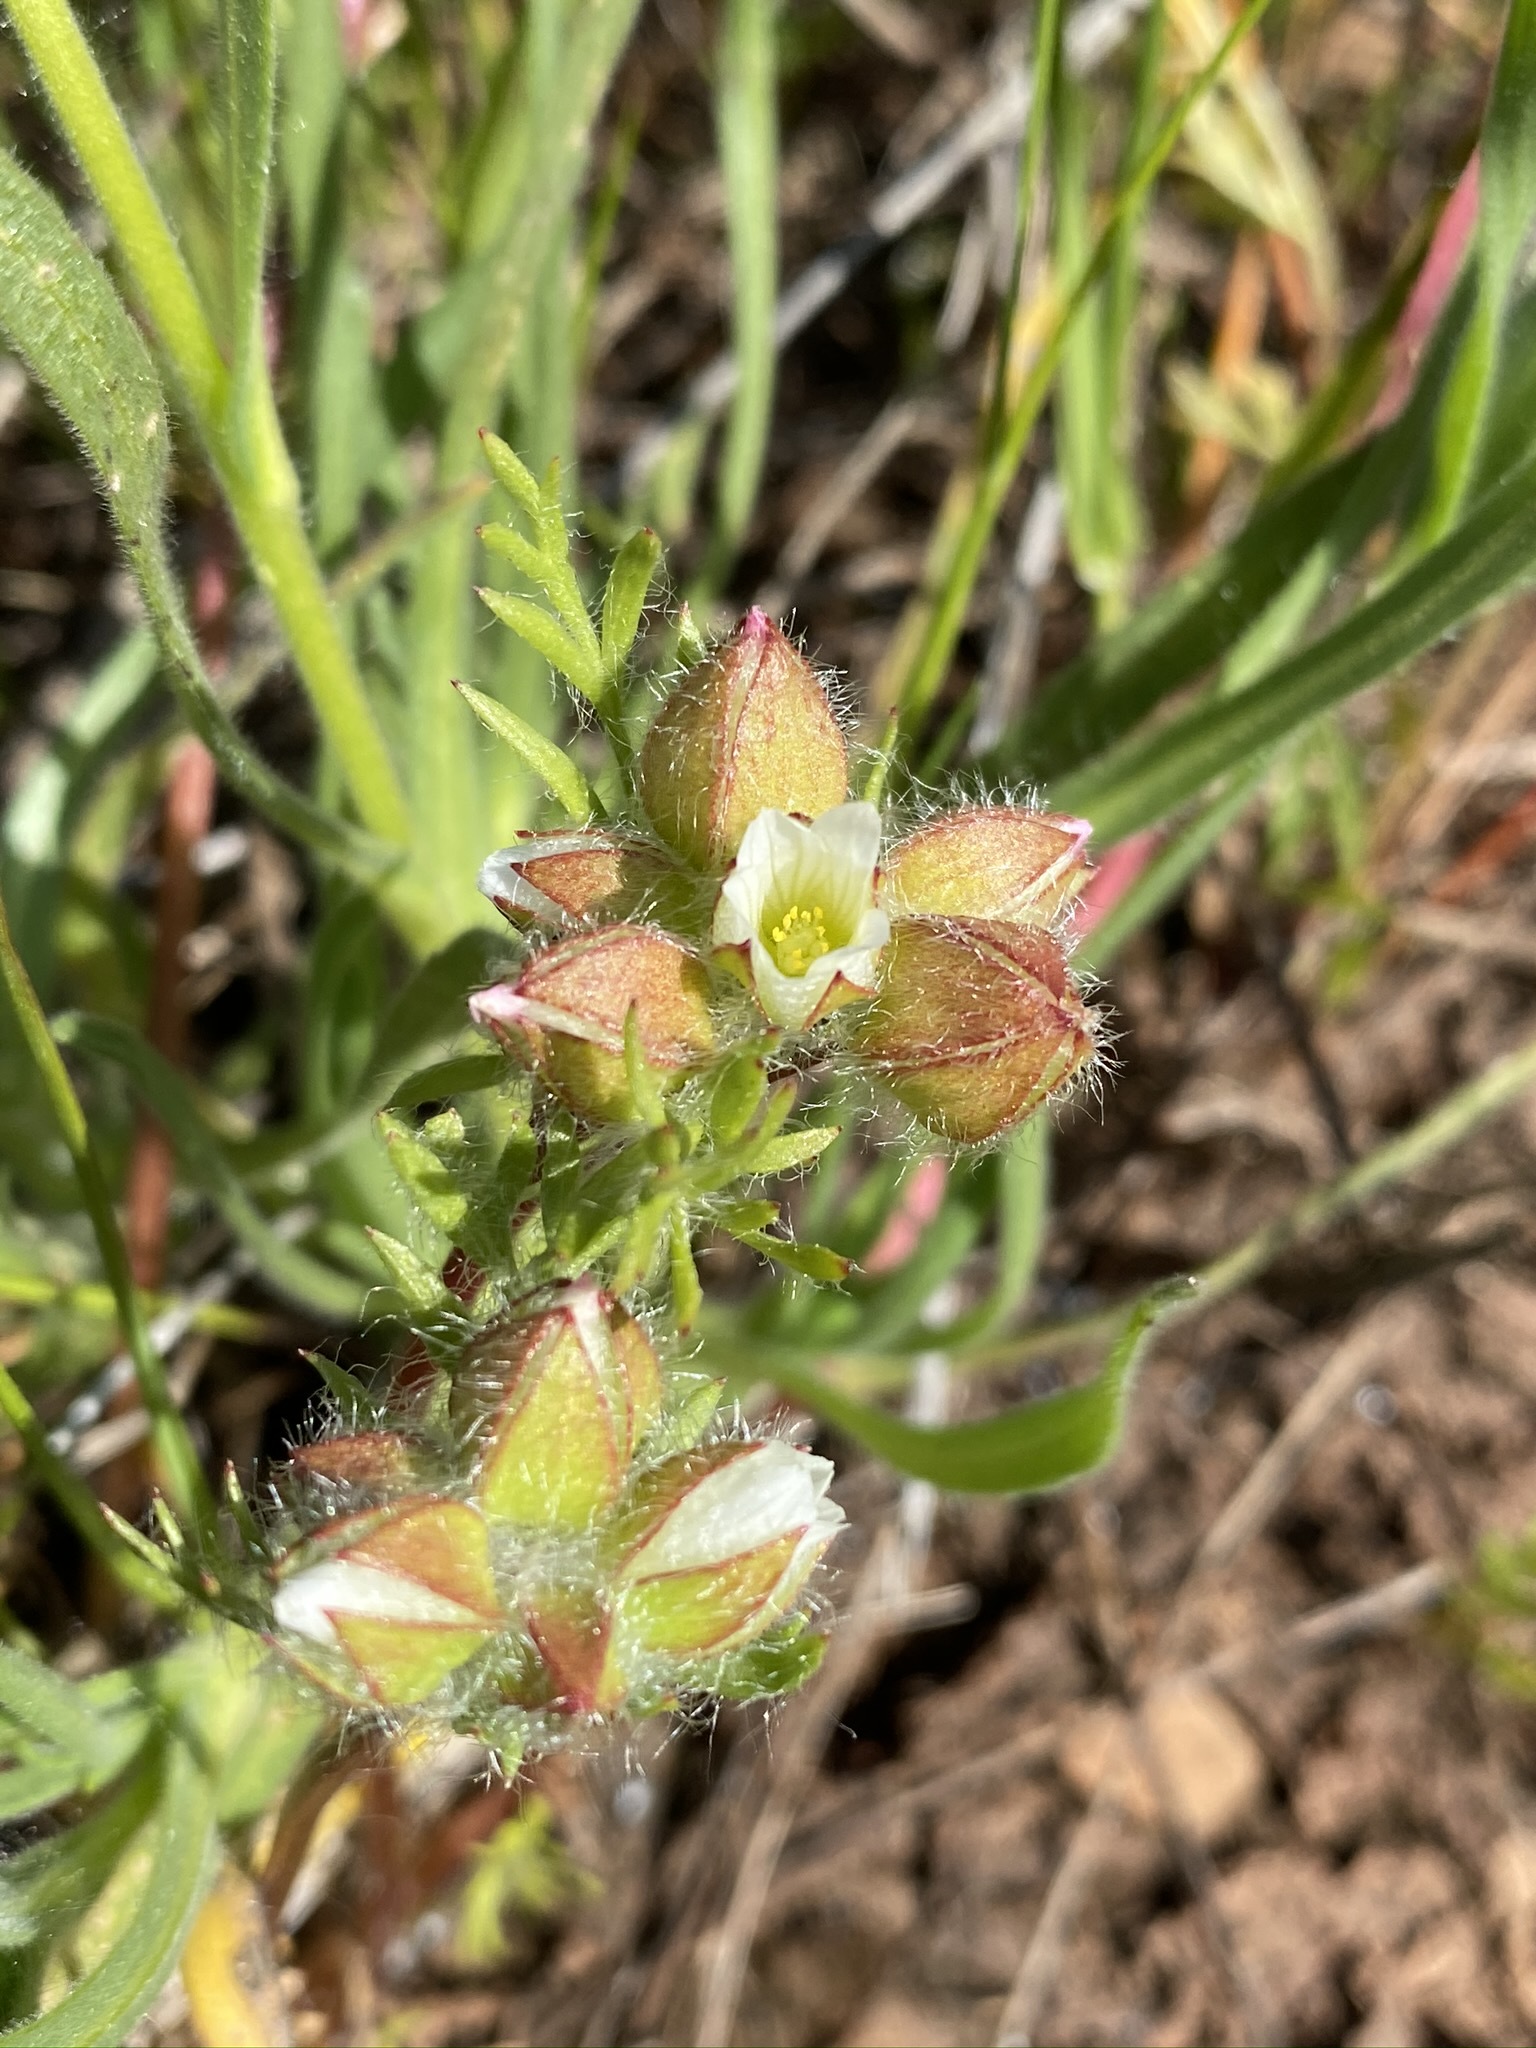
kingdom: Plantae
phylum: Tracheophyta
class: Magnoliopsida
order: Brassicales
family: Limnanthaceae
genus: Limnanthes
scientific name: Limnanthes floccosa
